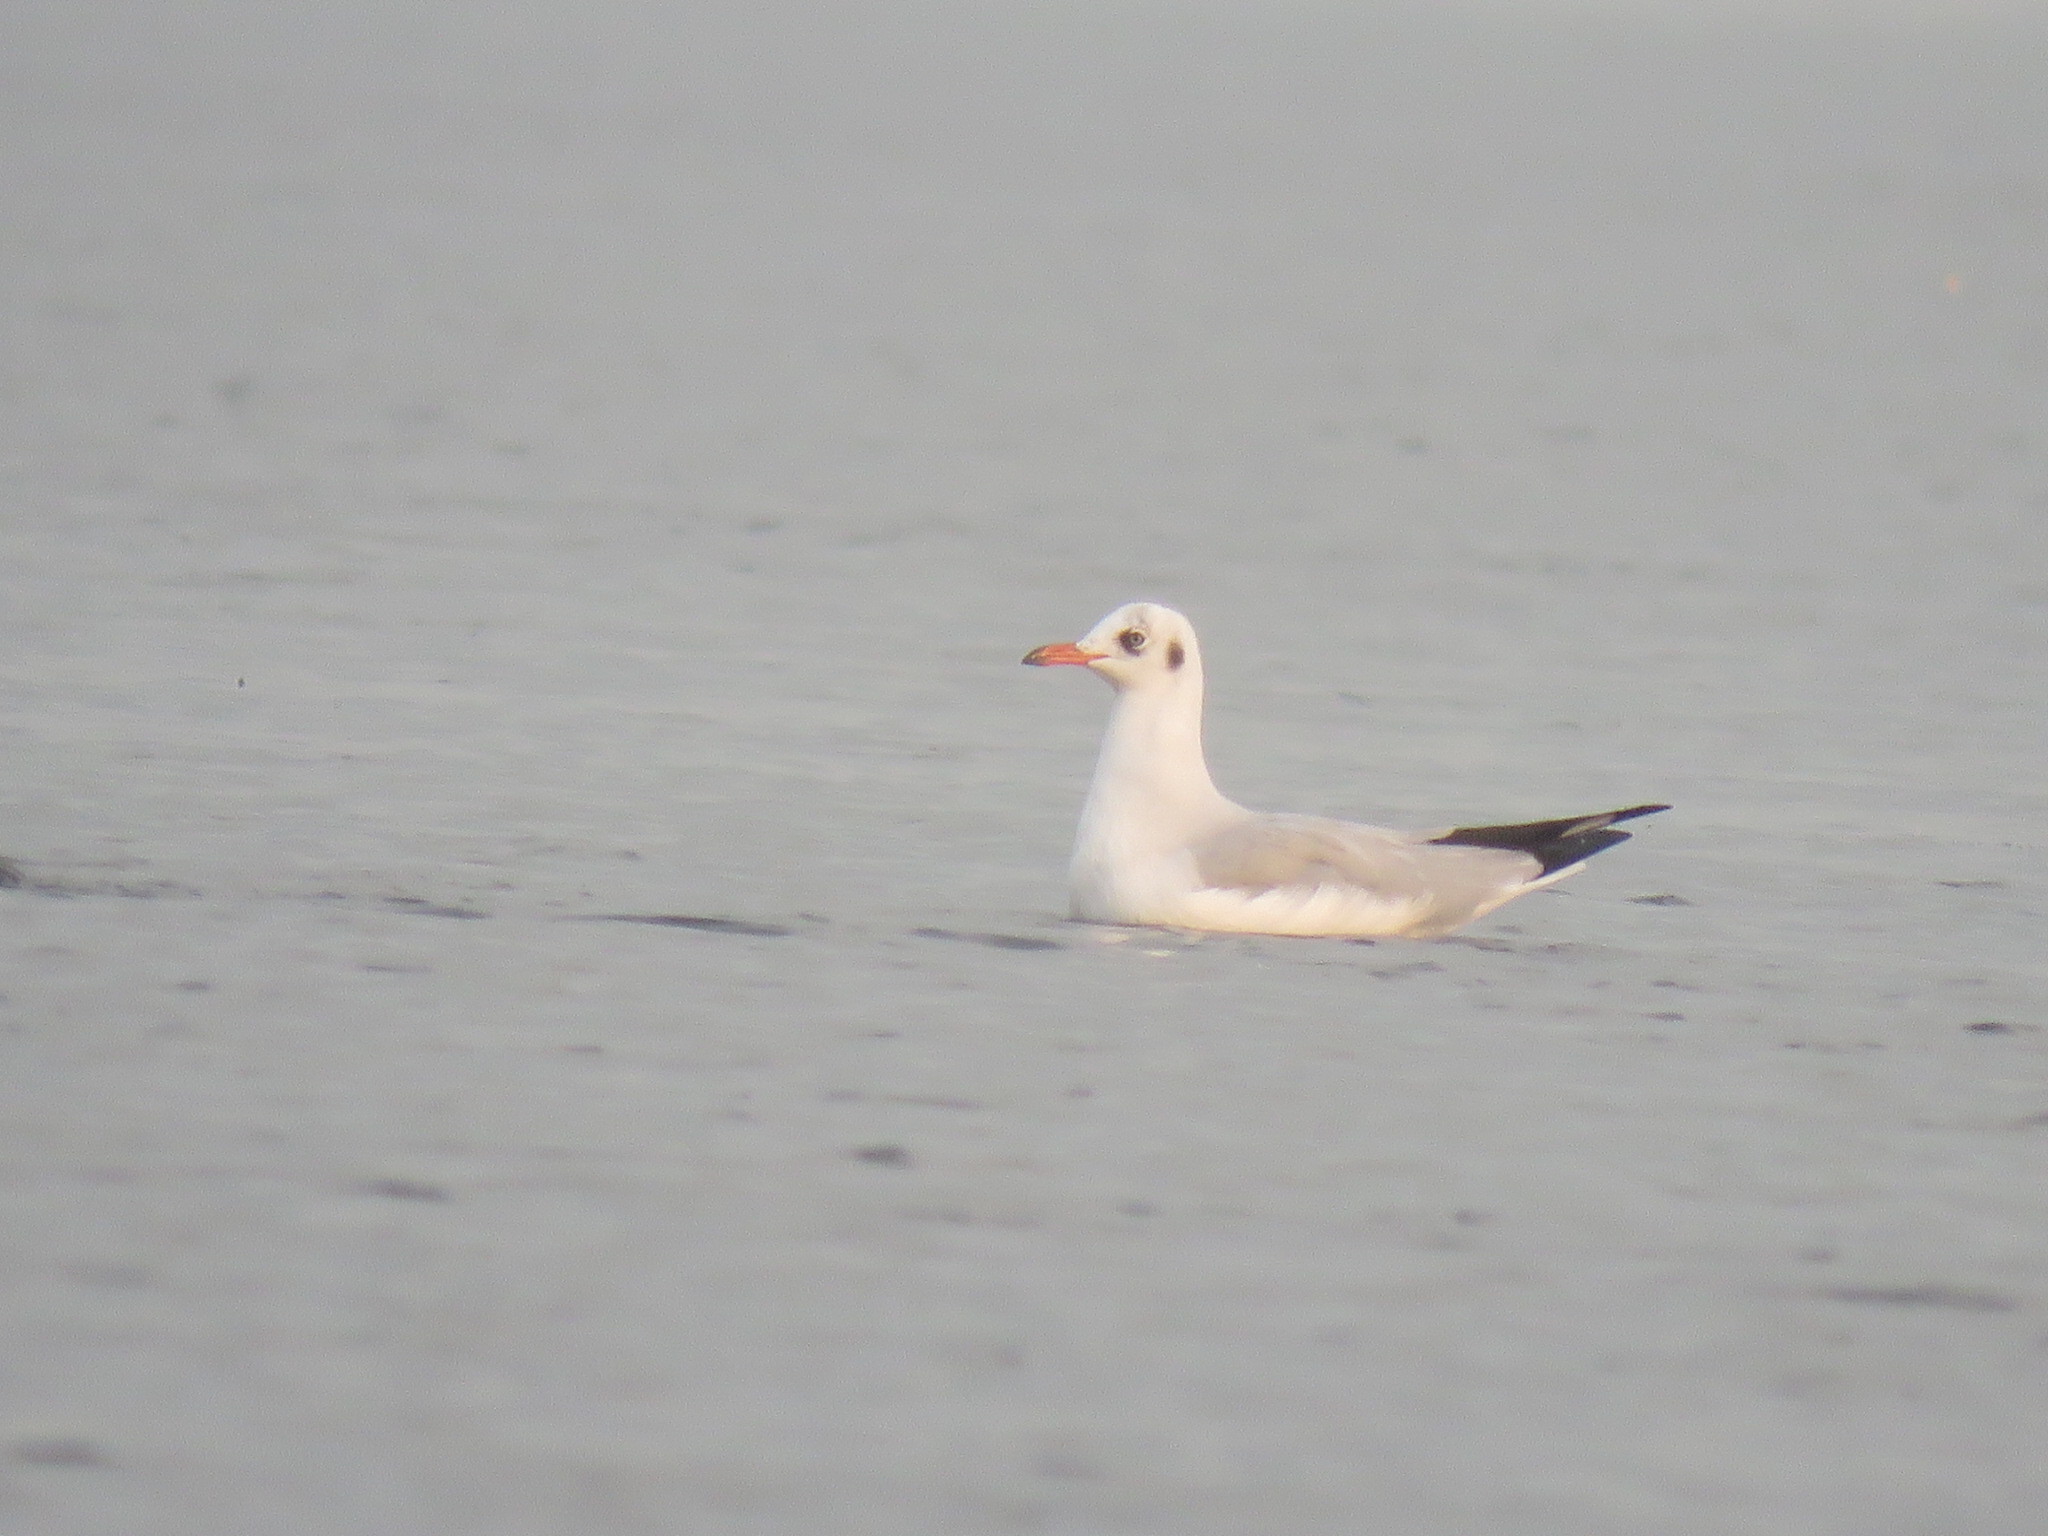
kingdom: Animalia
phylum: Chordata
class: Aves
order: Charadriiformes
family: Laridae
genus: Chroicocephalus
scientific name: Chroicocephalus brunnicephalus
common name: Brown-headed gull
